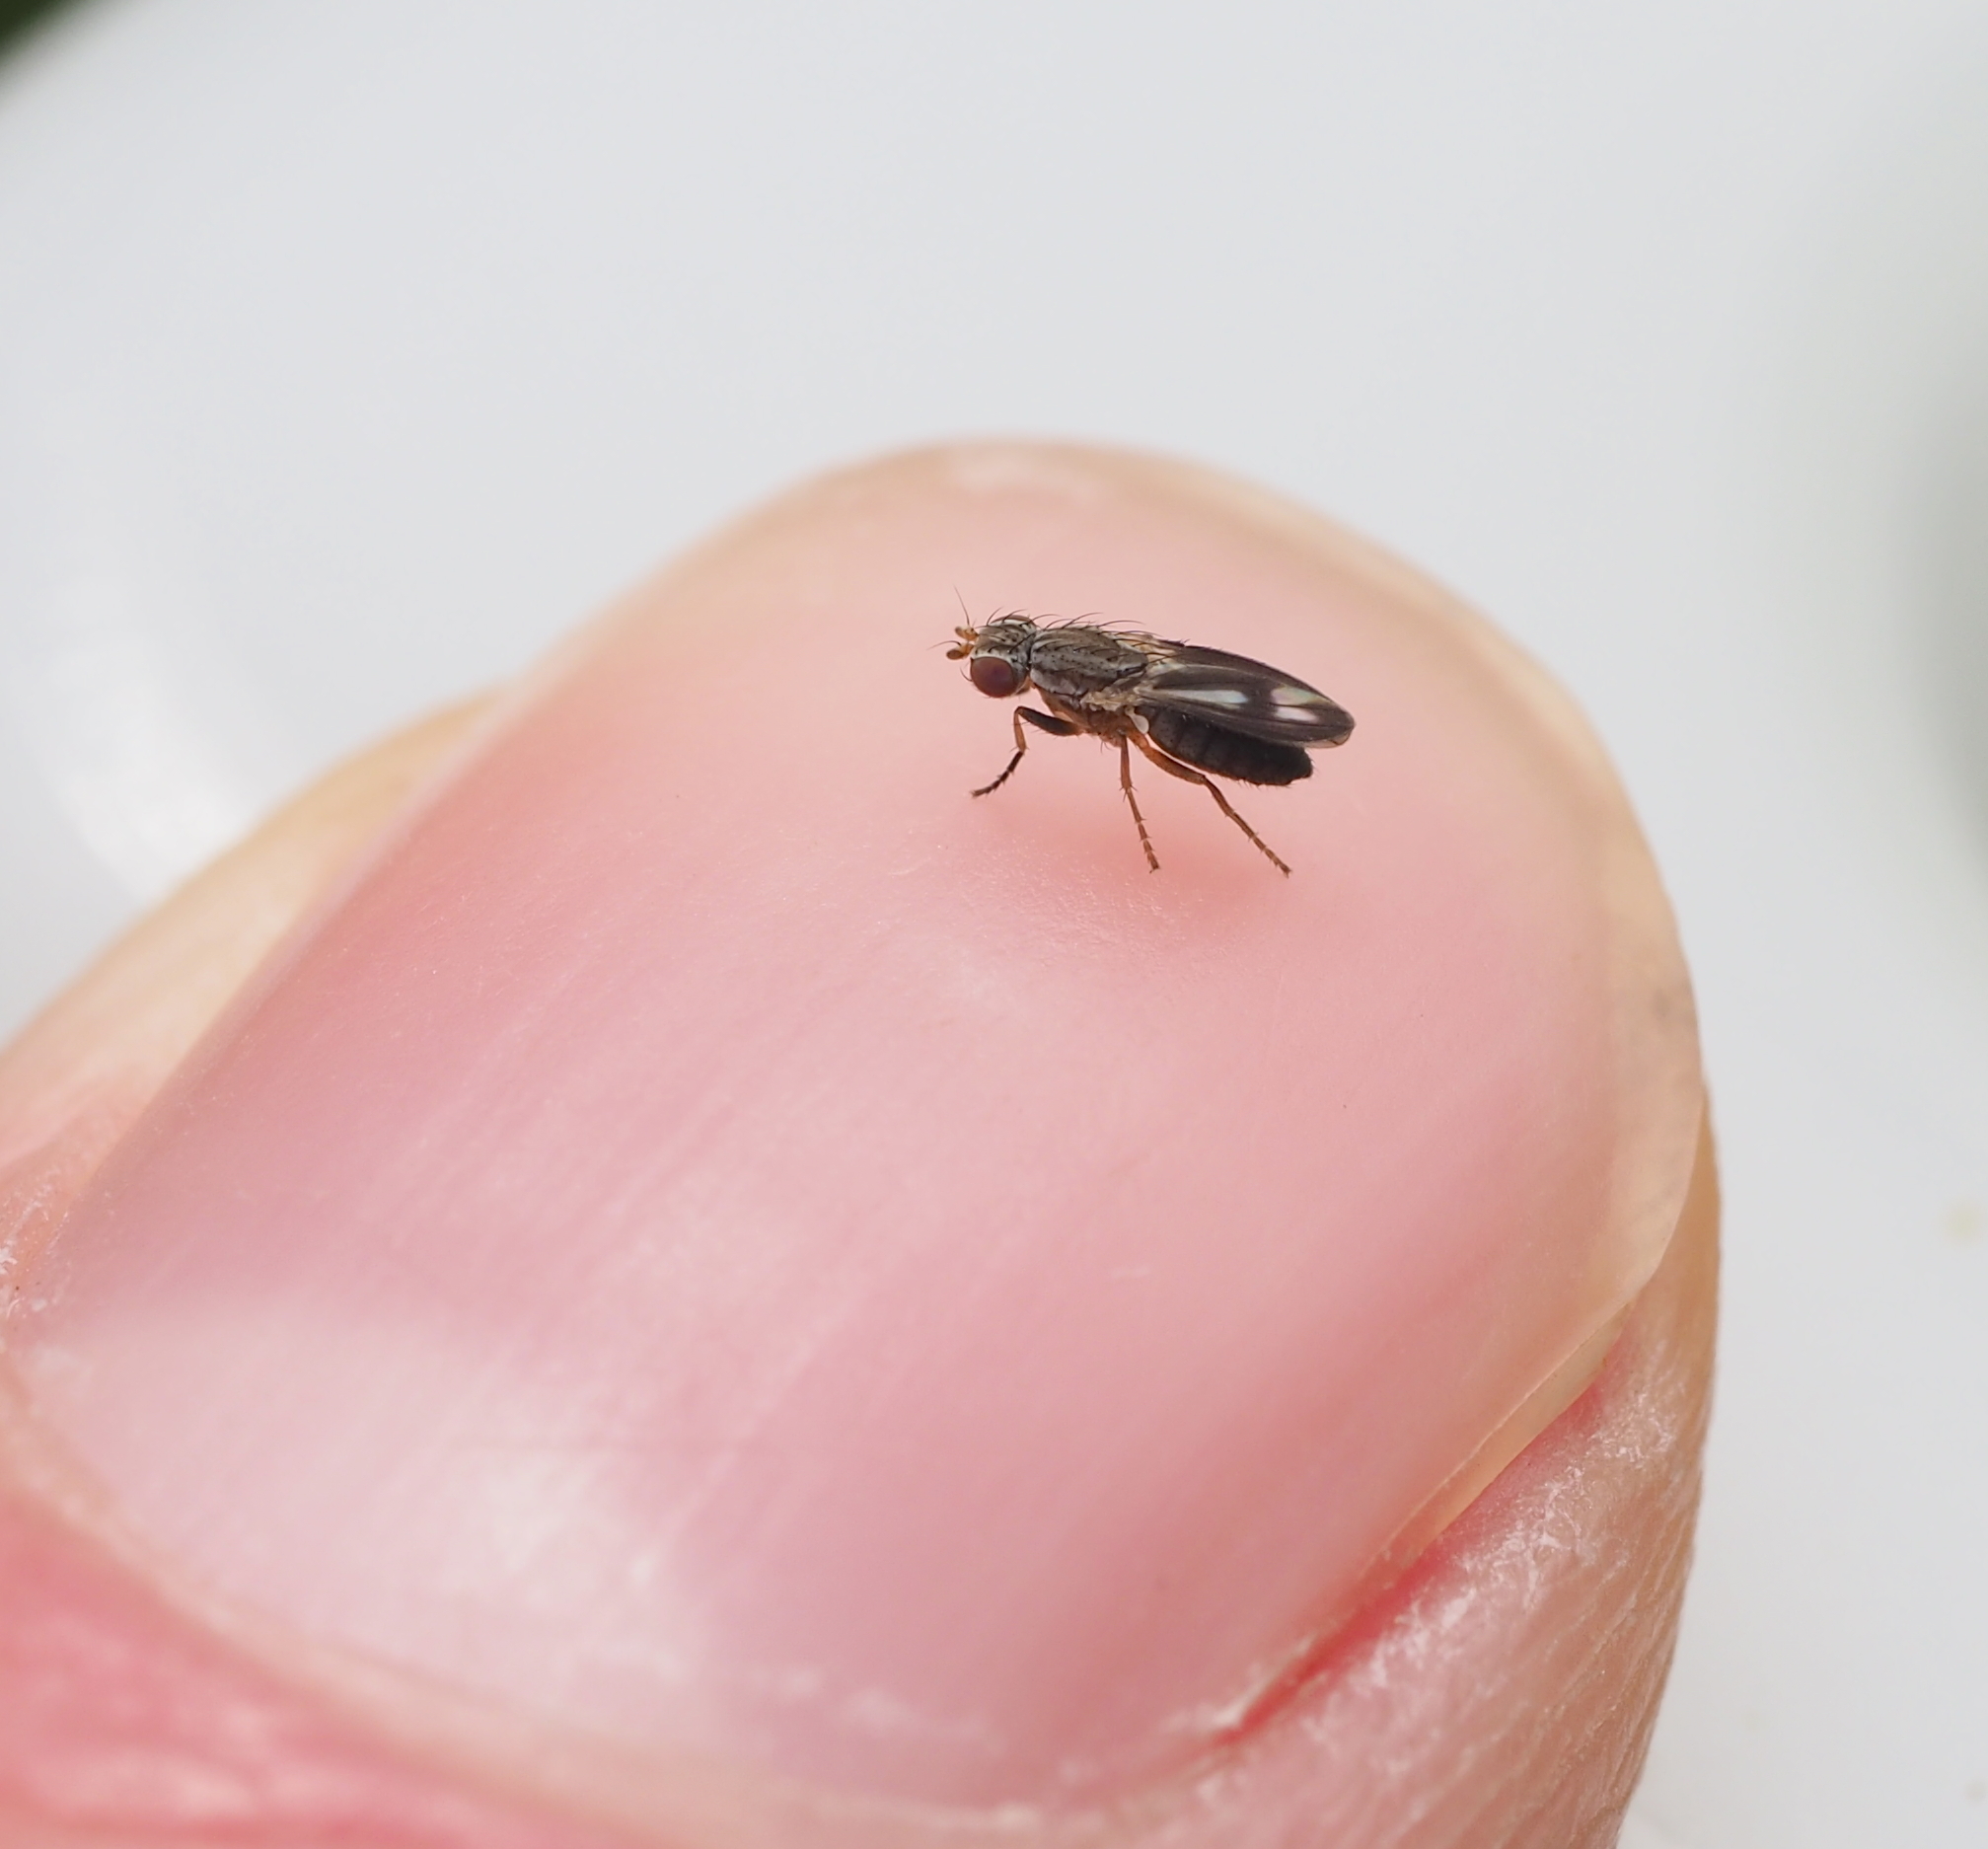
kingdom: Animalia
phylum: Arthropoda
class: Insecta
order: Diptera
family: Heleomyzidae
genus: Trixoscelis
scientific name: Trixoscelis marginella
